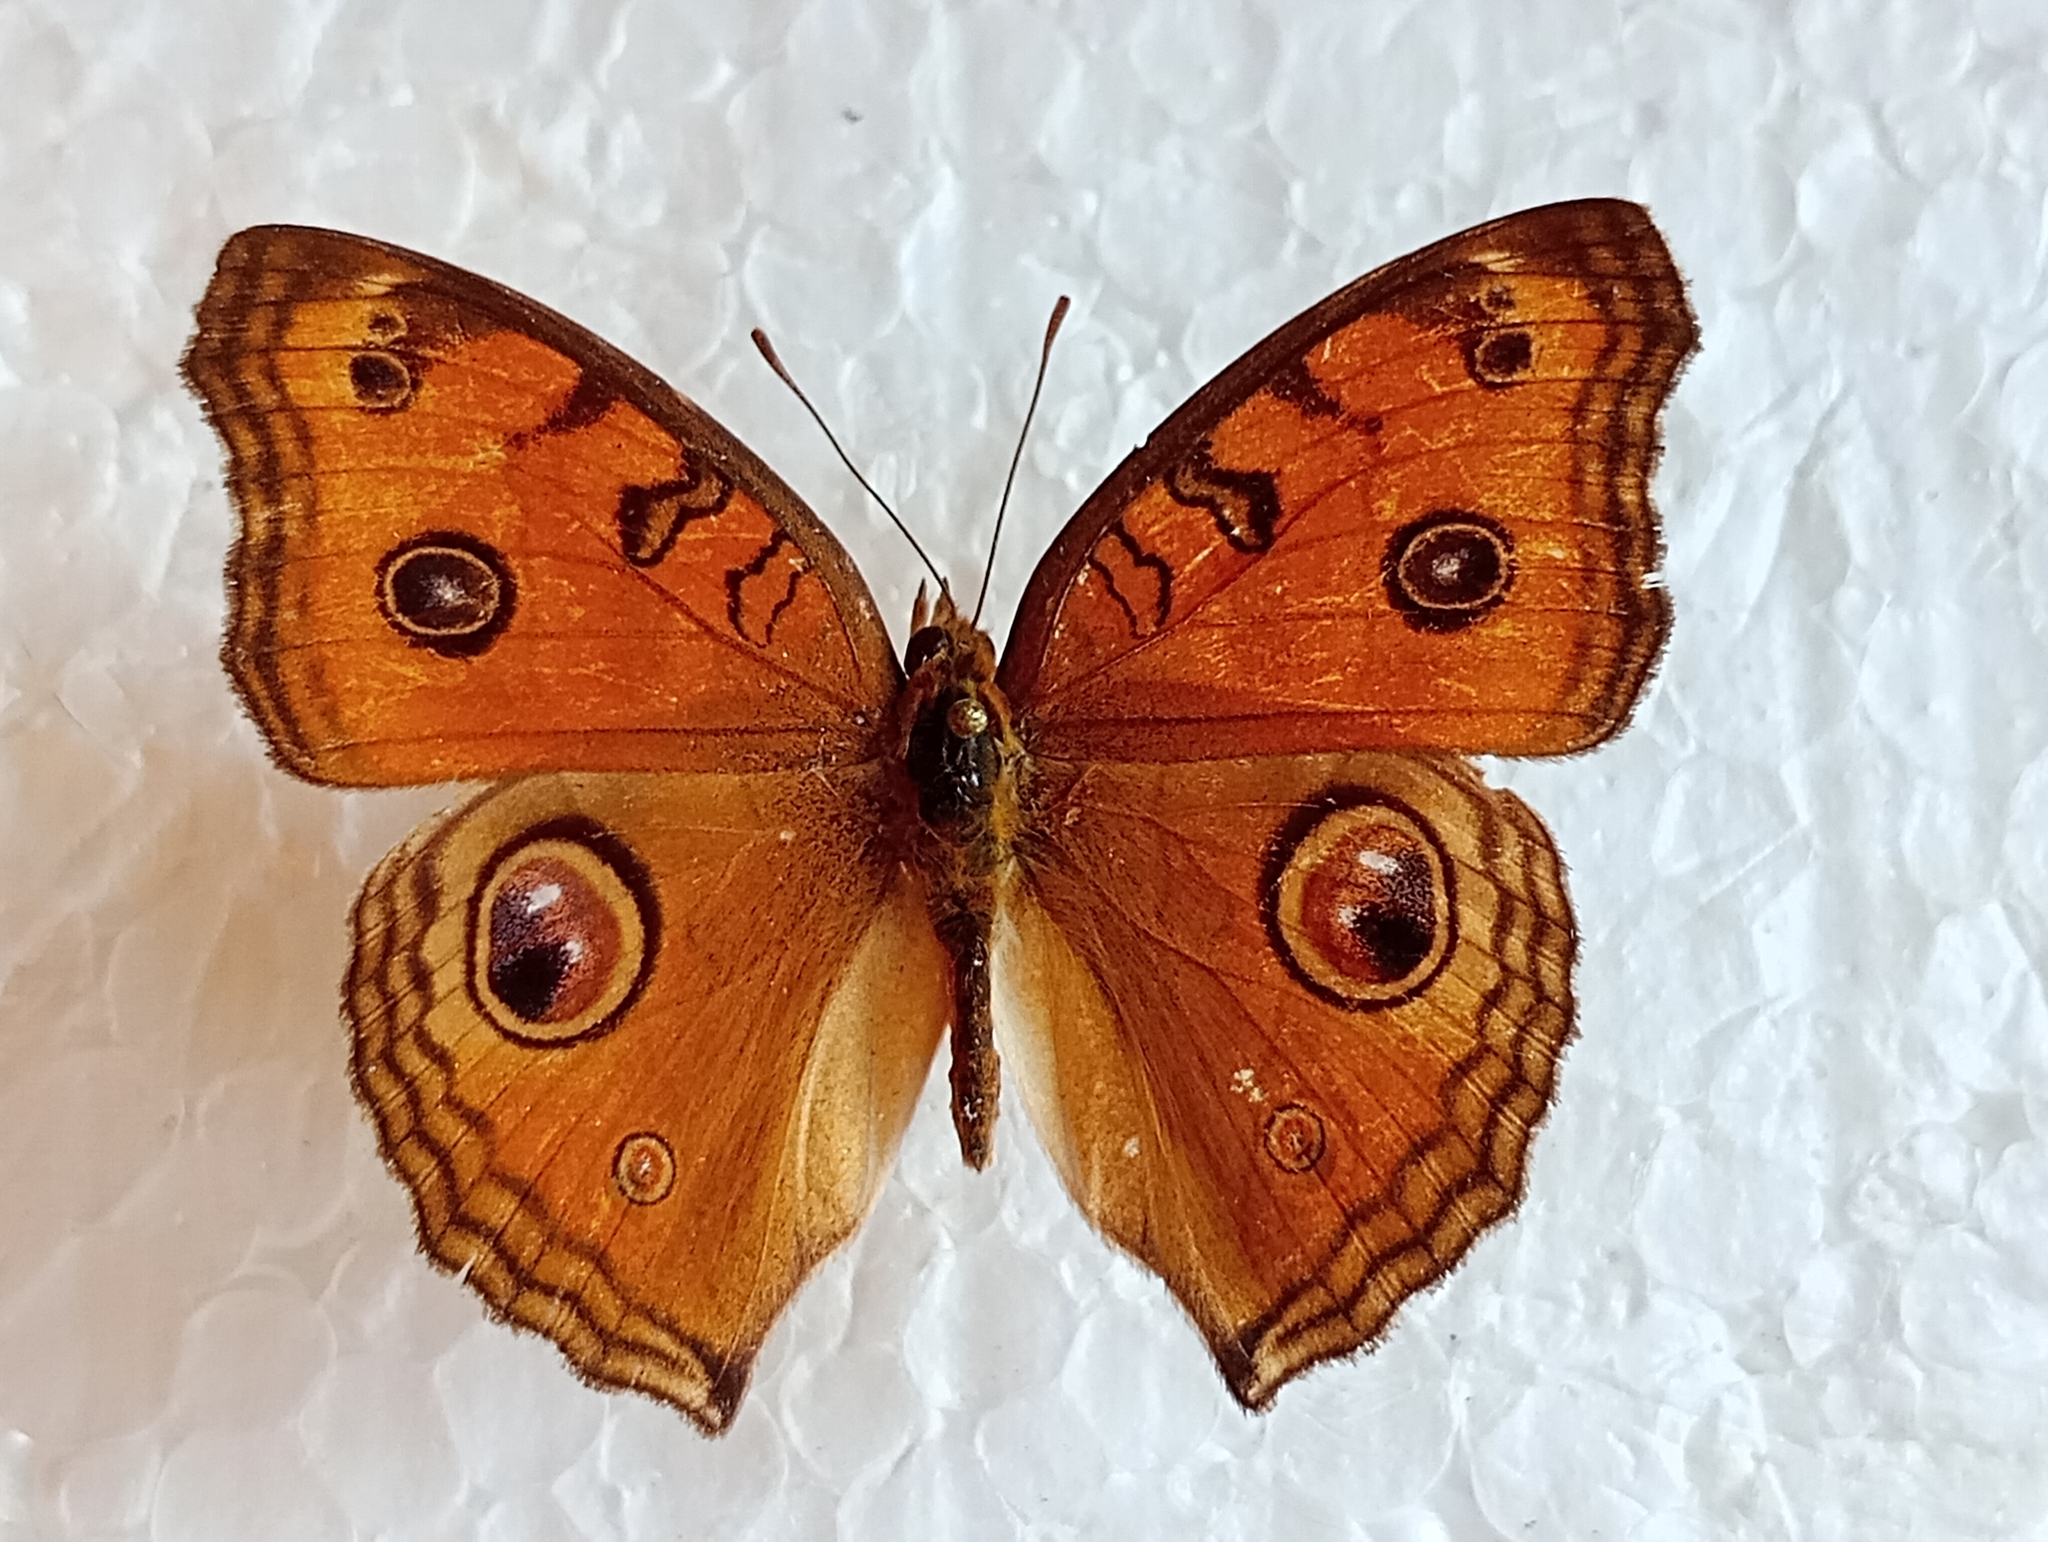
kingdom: Animalia
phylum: Arthropoda
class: Insecta
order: Lepidoptera
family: Nymphalidae
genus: Junonia
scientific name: Junonia almana
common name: Peacock pansy
